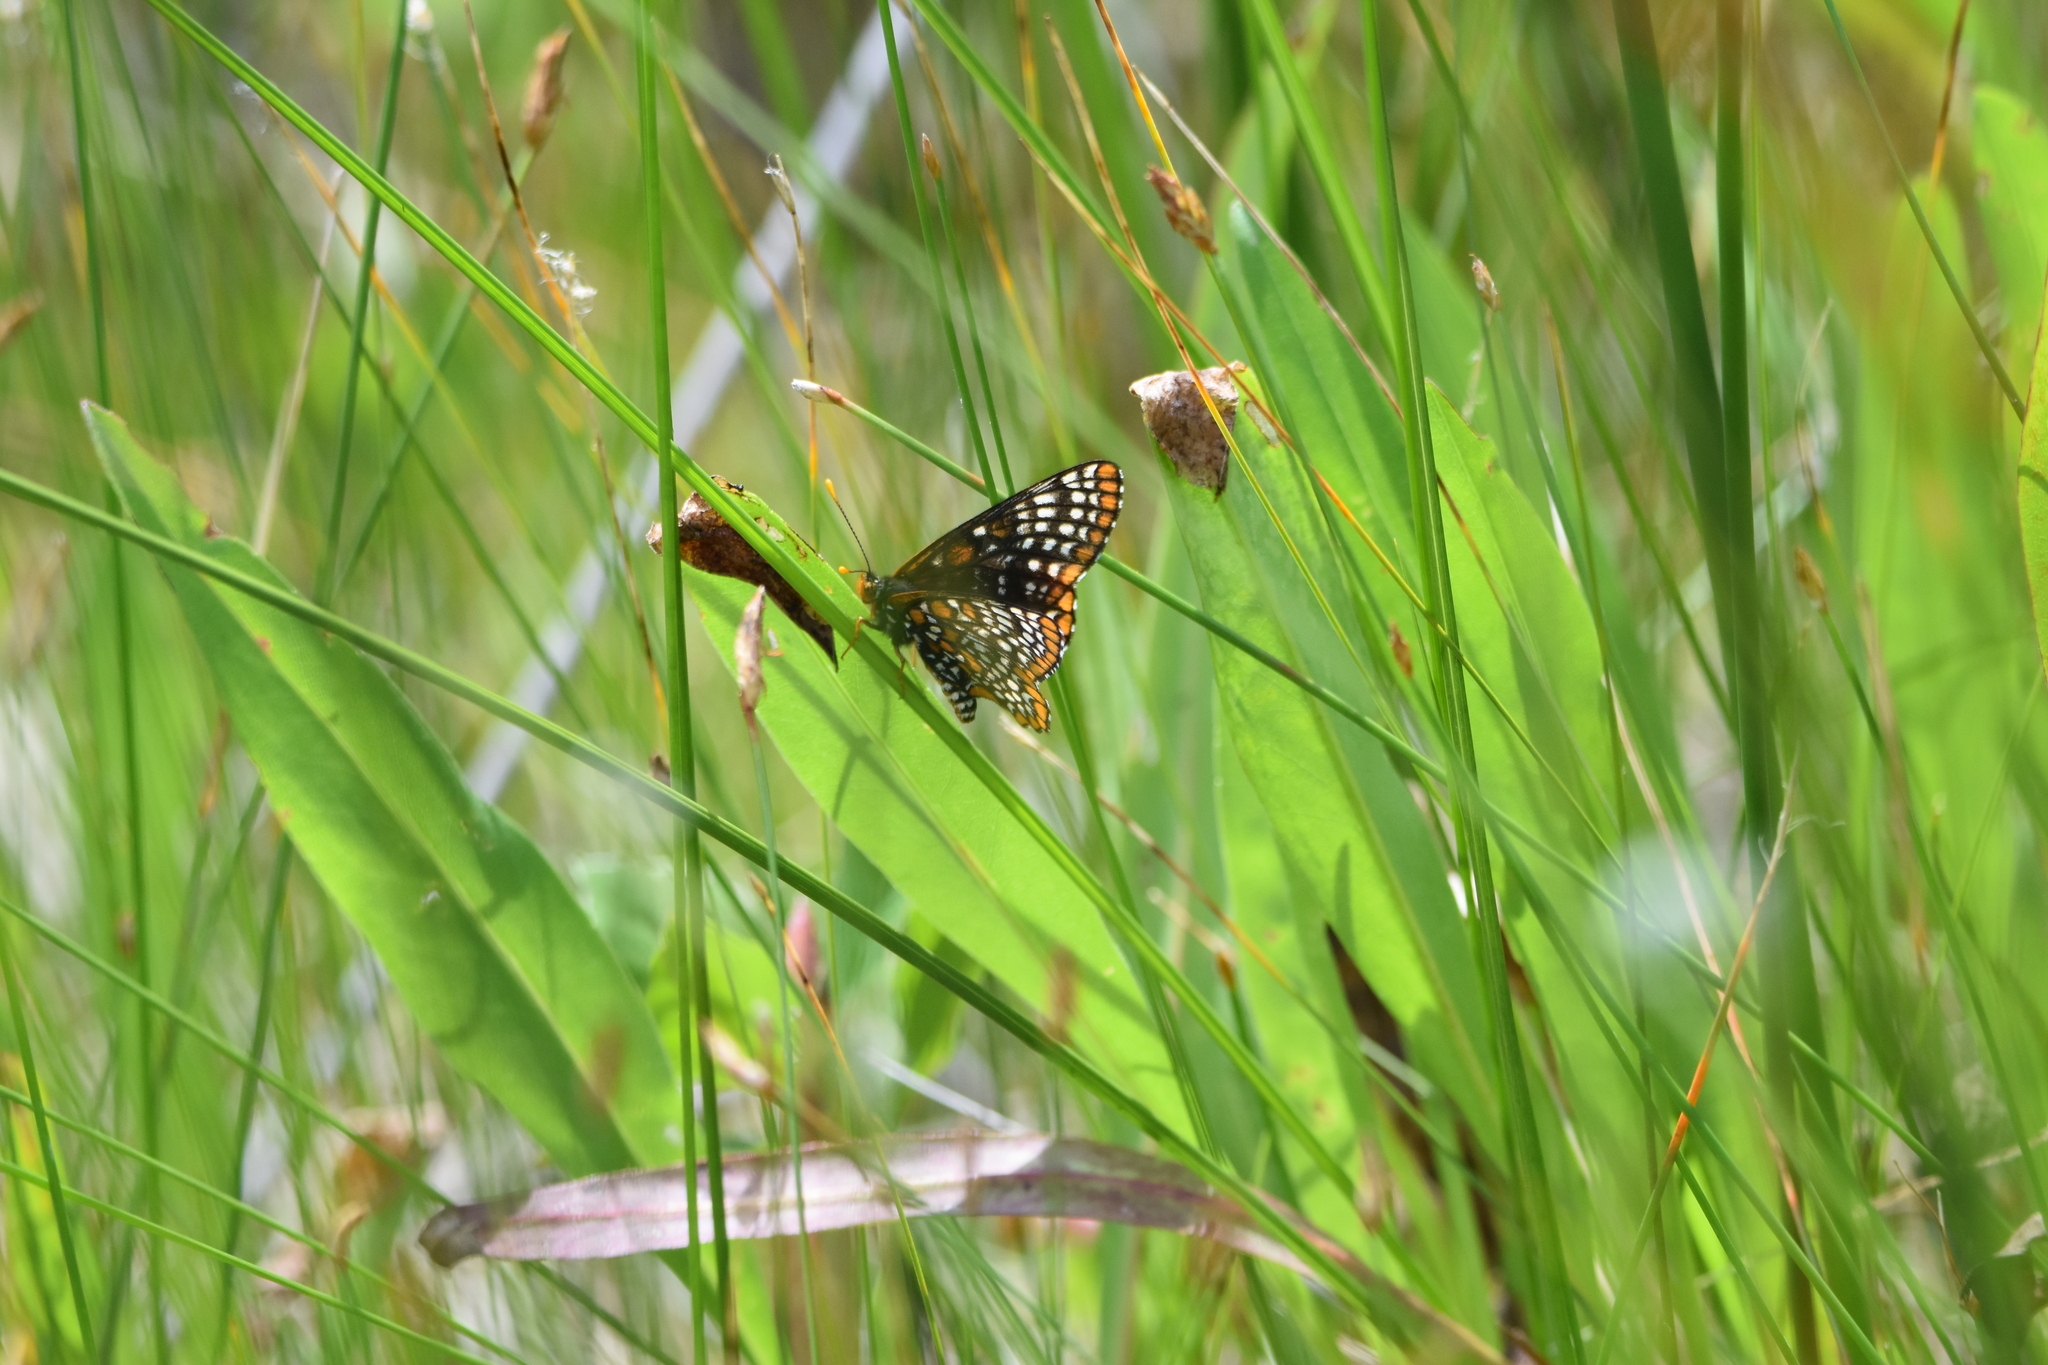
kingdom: Animalia
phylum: Arthropoda
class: Insecta
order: Lepidoptera
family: Nymphalidae
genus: Euphydryas
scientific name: Euphydryas phaeton
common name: Baltimore checkerspot
